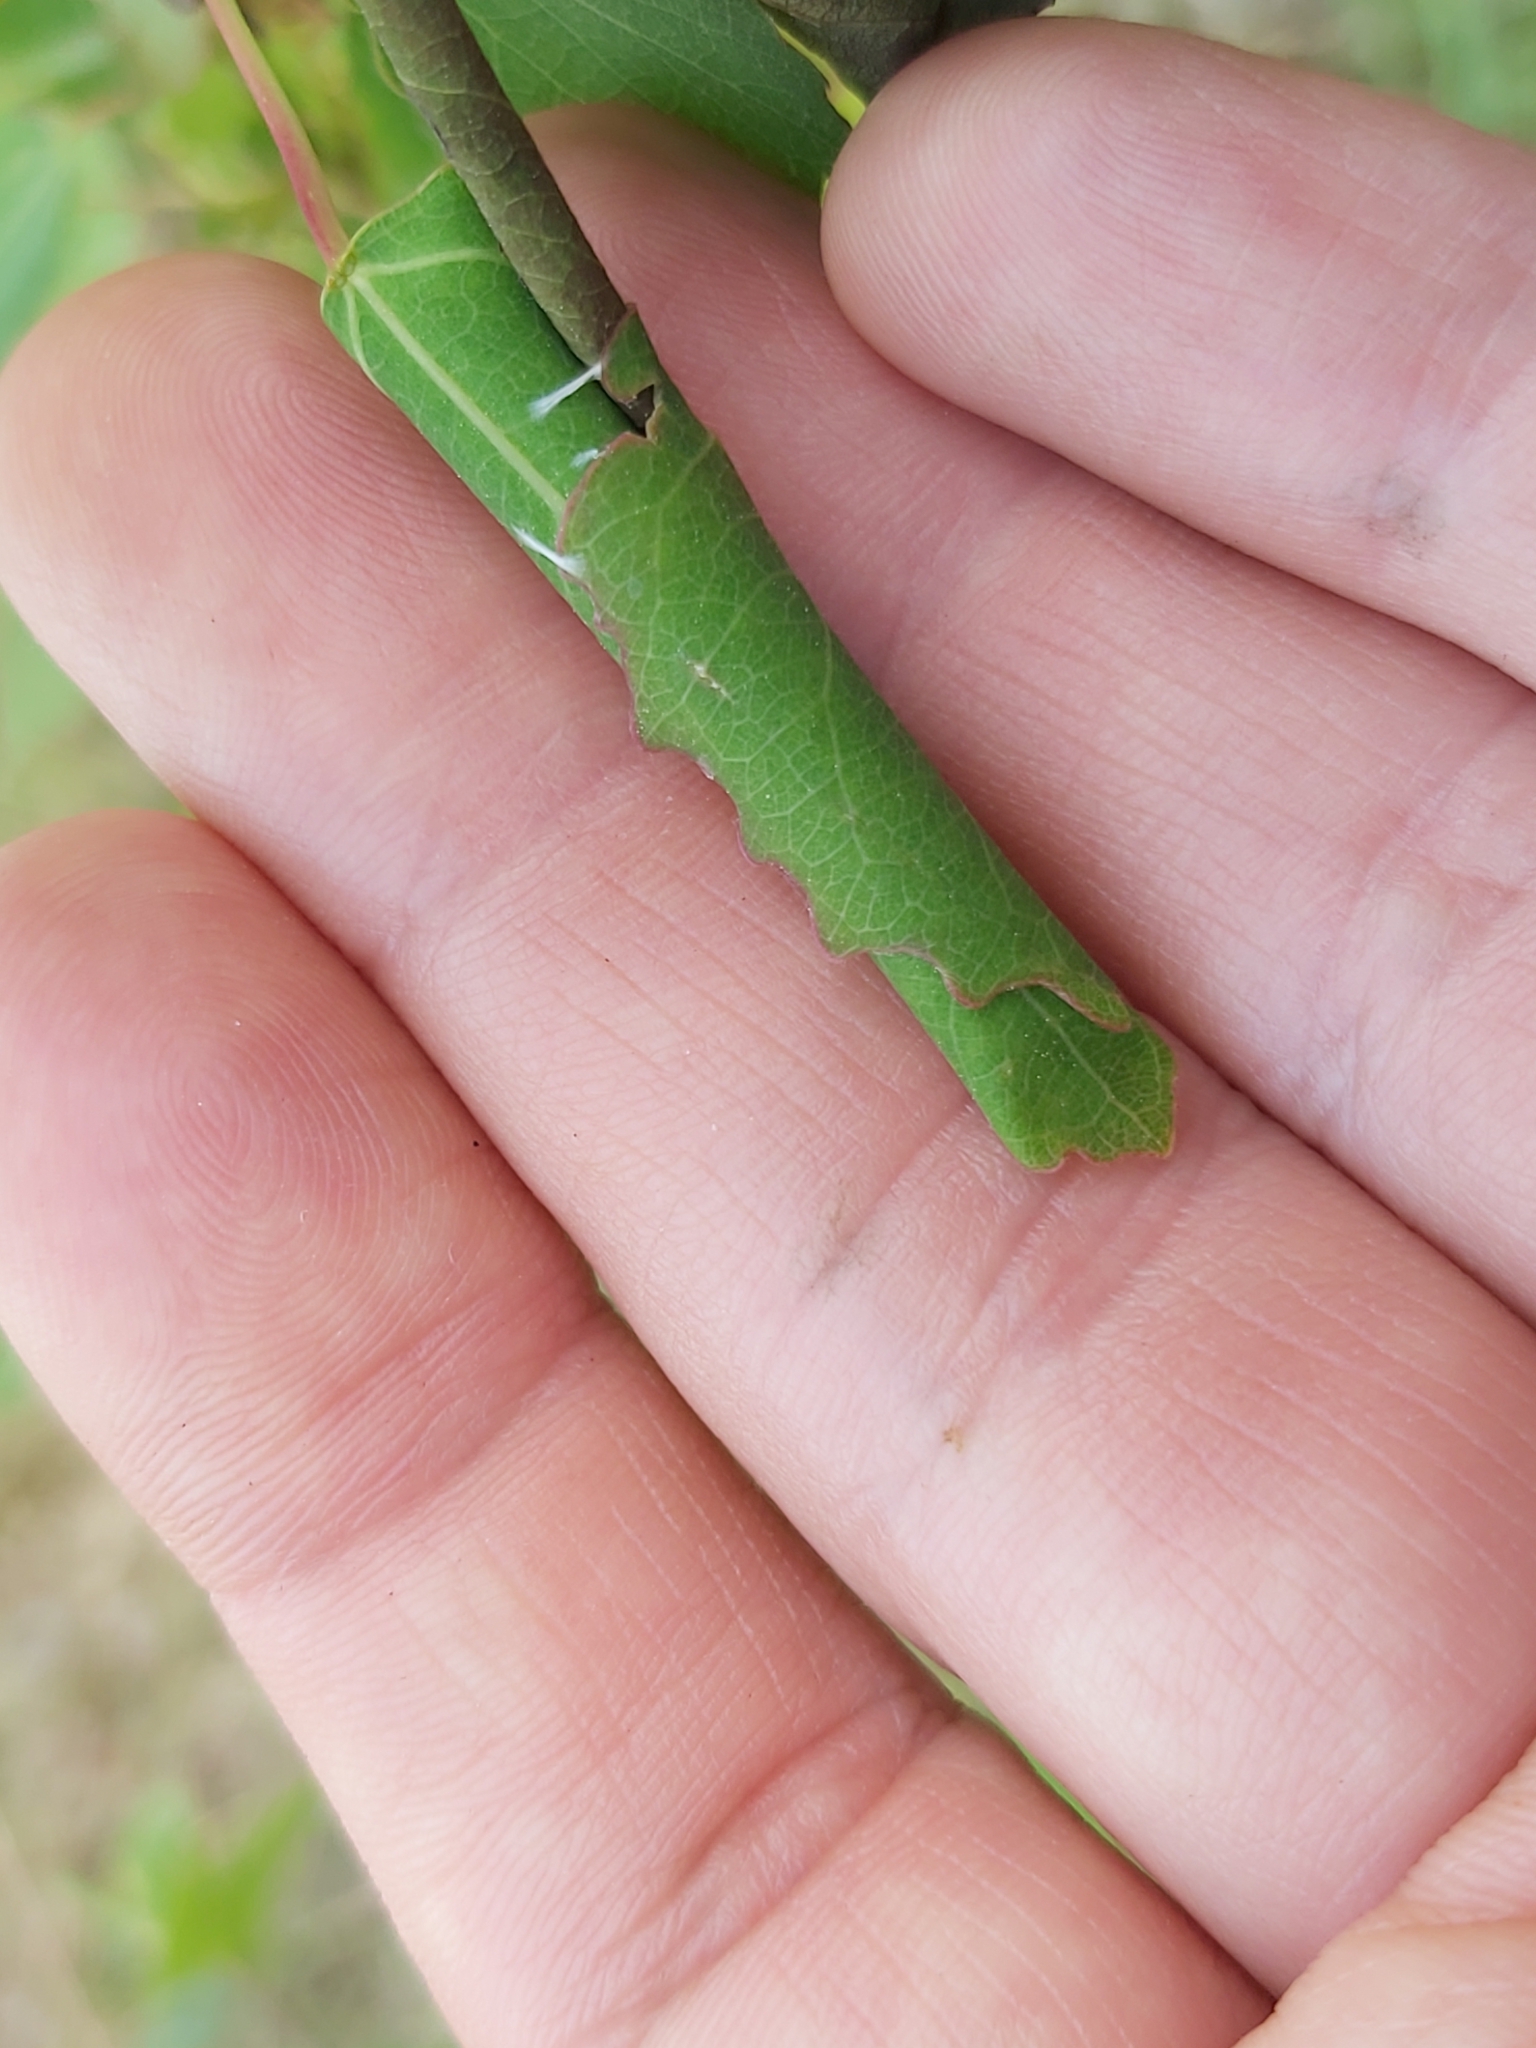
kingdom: Animalia
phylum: Arthropoda
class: Insecta
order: Coleoptera
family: Attelabidae
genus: Byctiscus
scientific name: Byctiscus populi
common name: Leaf-rolling weevil
